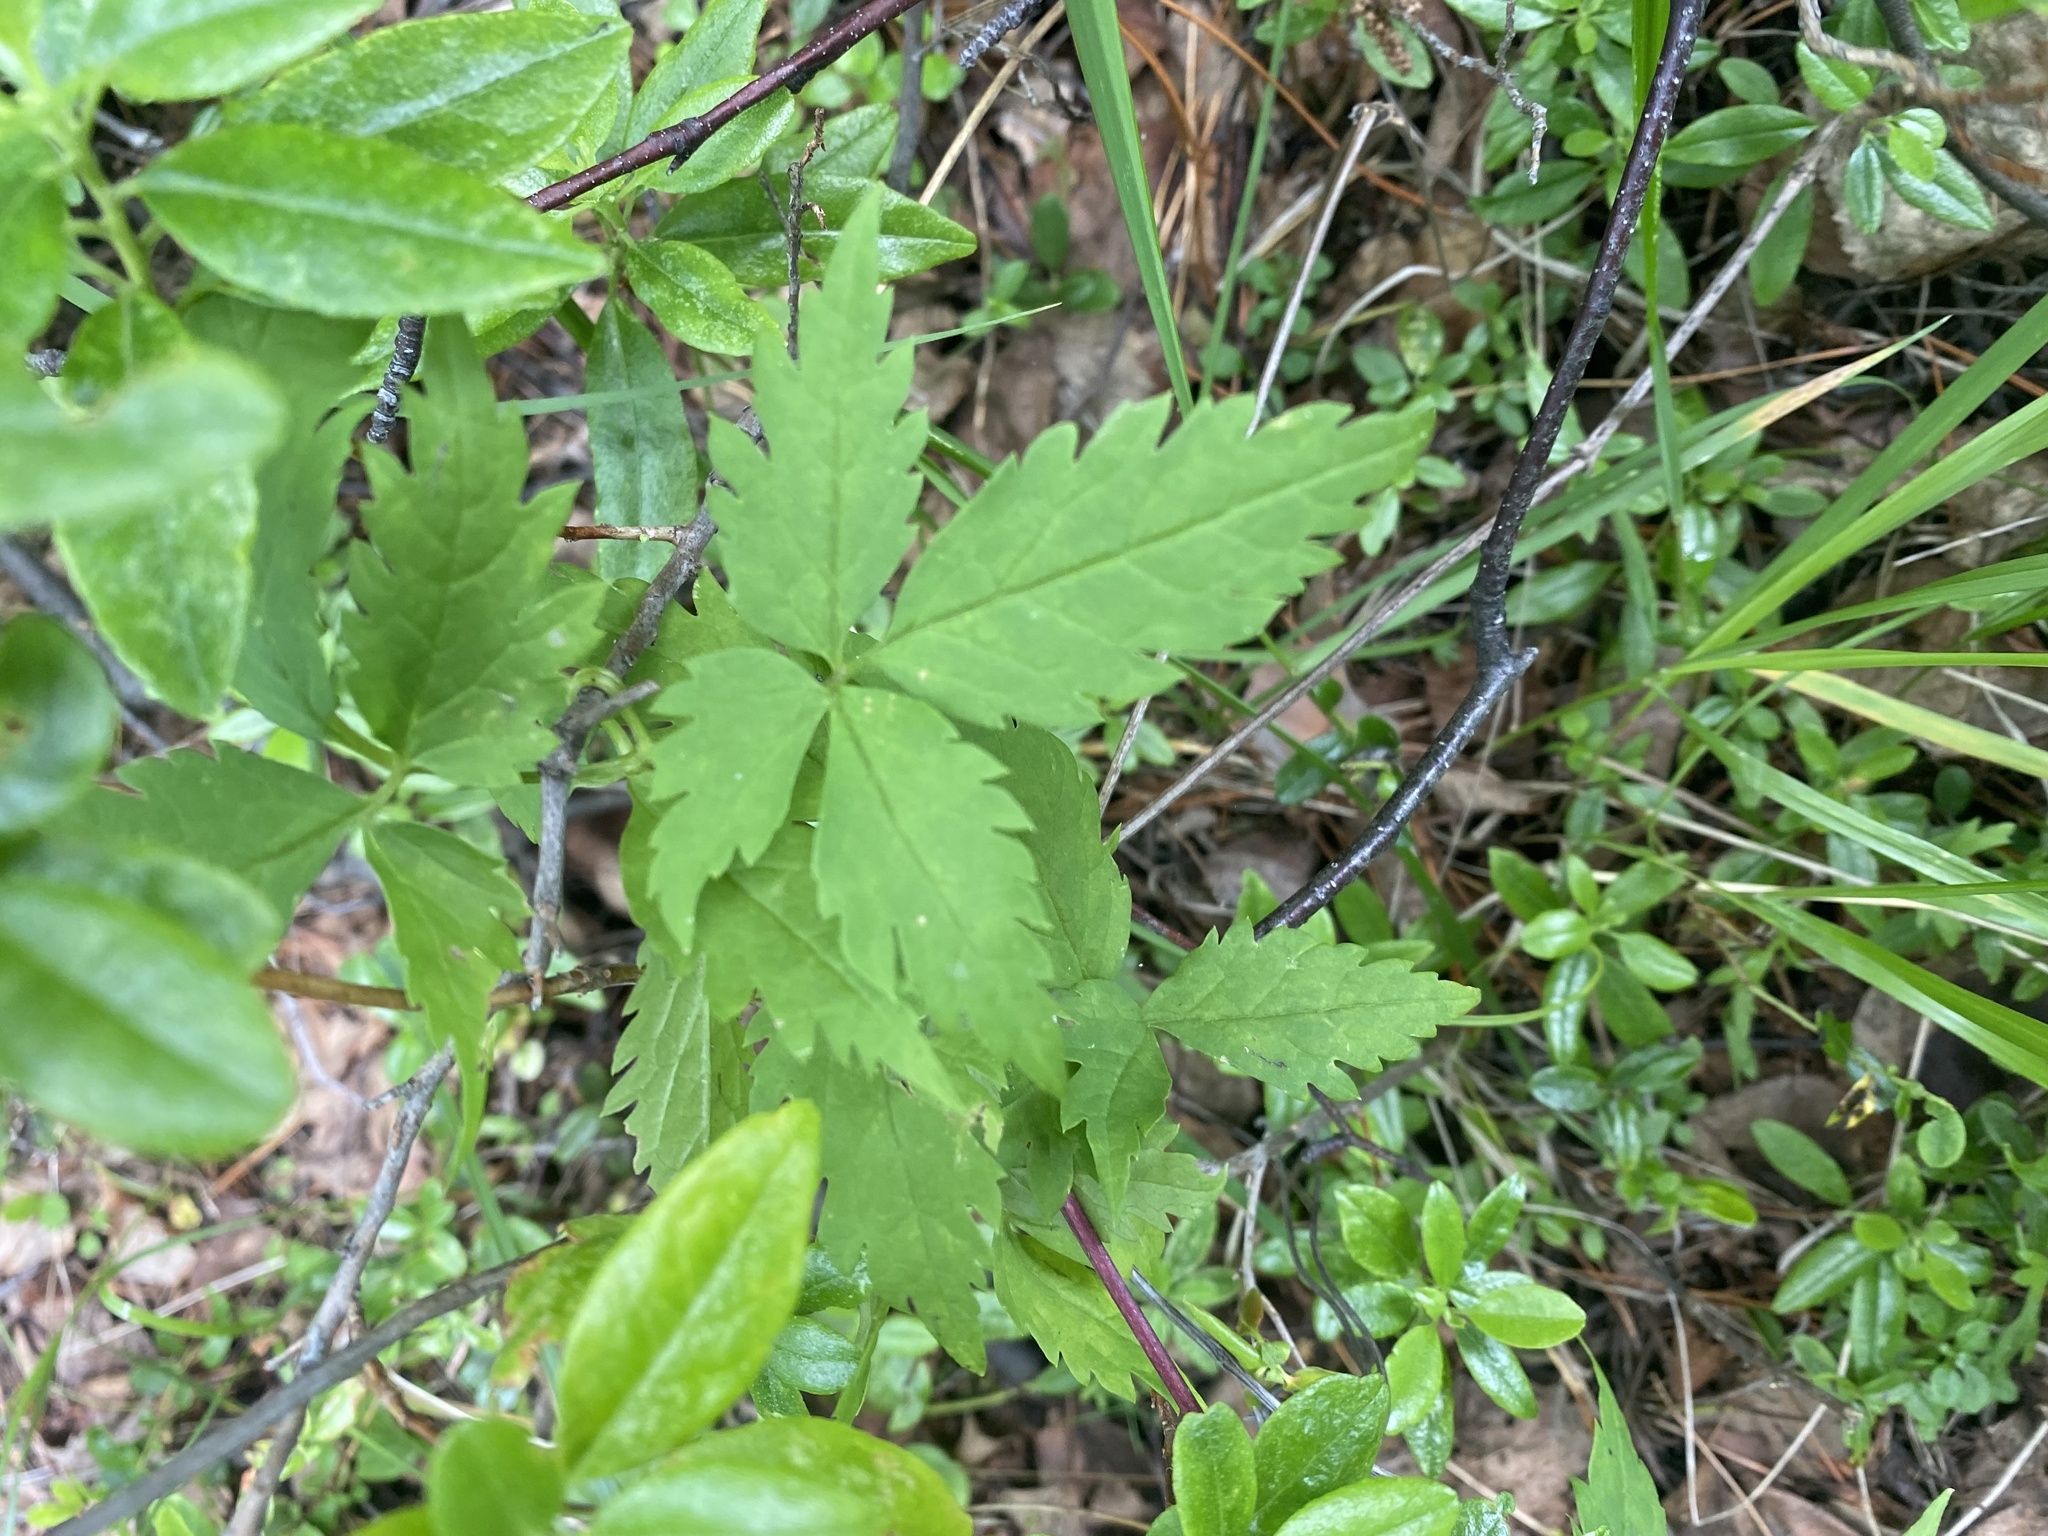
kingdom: Plantae
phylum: Tracheophyta
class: Magnoliopsida
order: Ranunculales
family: Ranunculaceae
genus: Clematis
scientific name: Clematis sibirica
